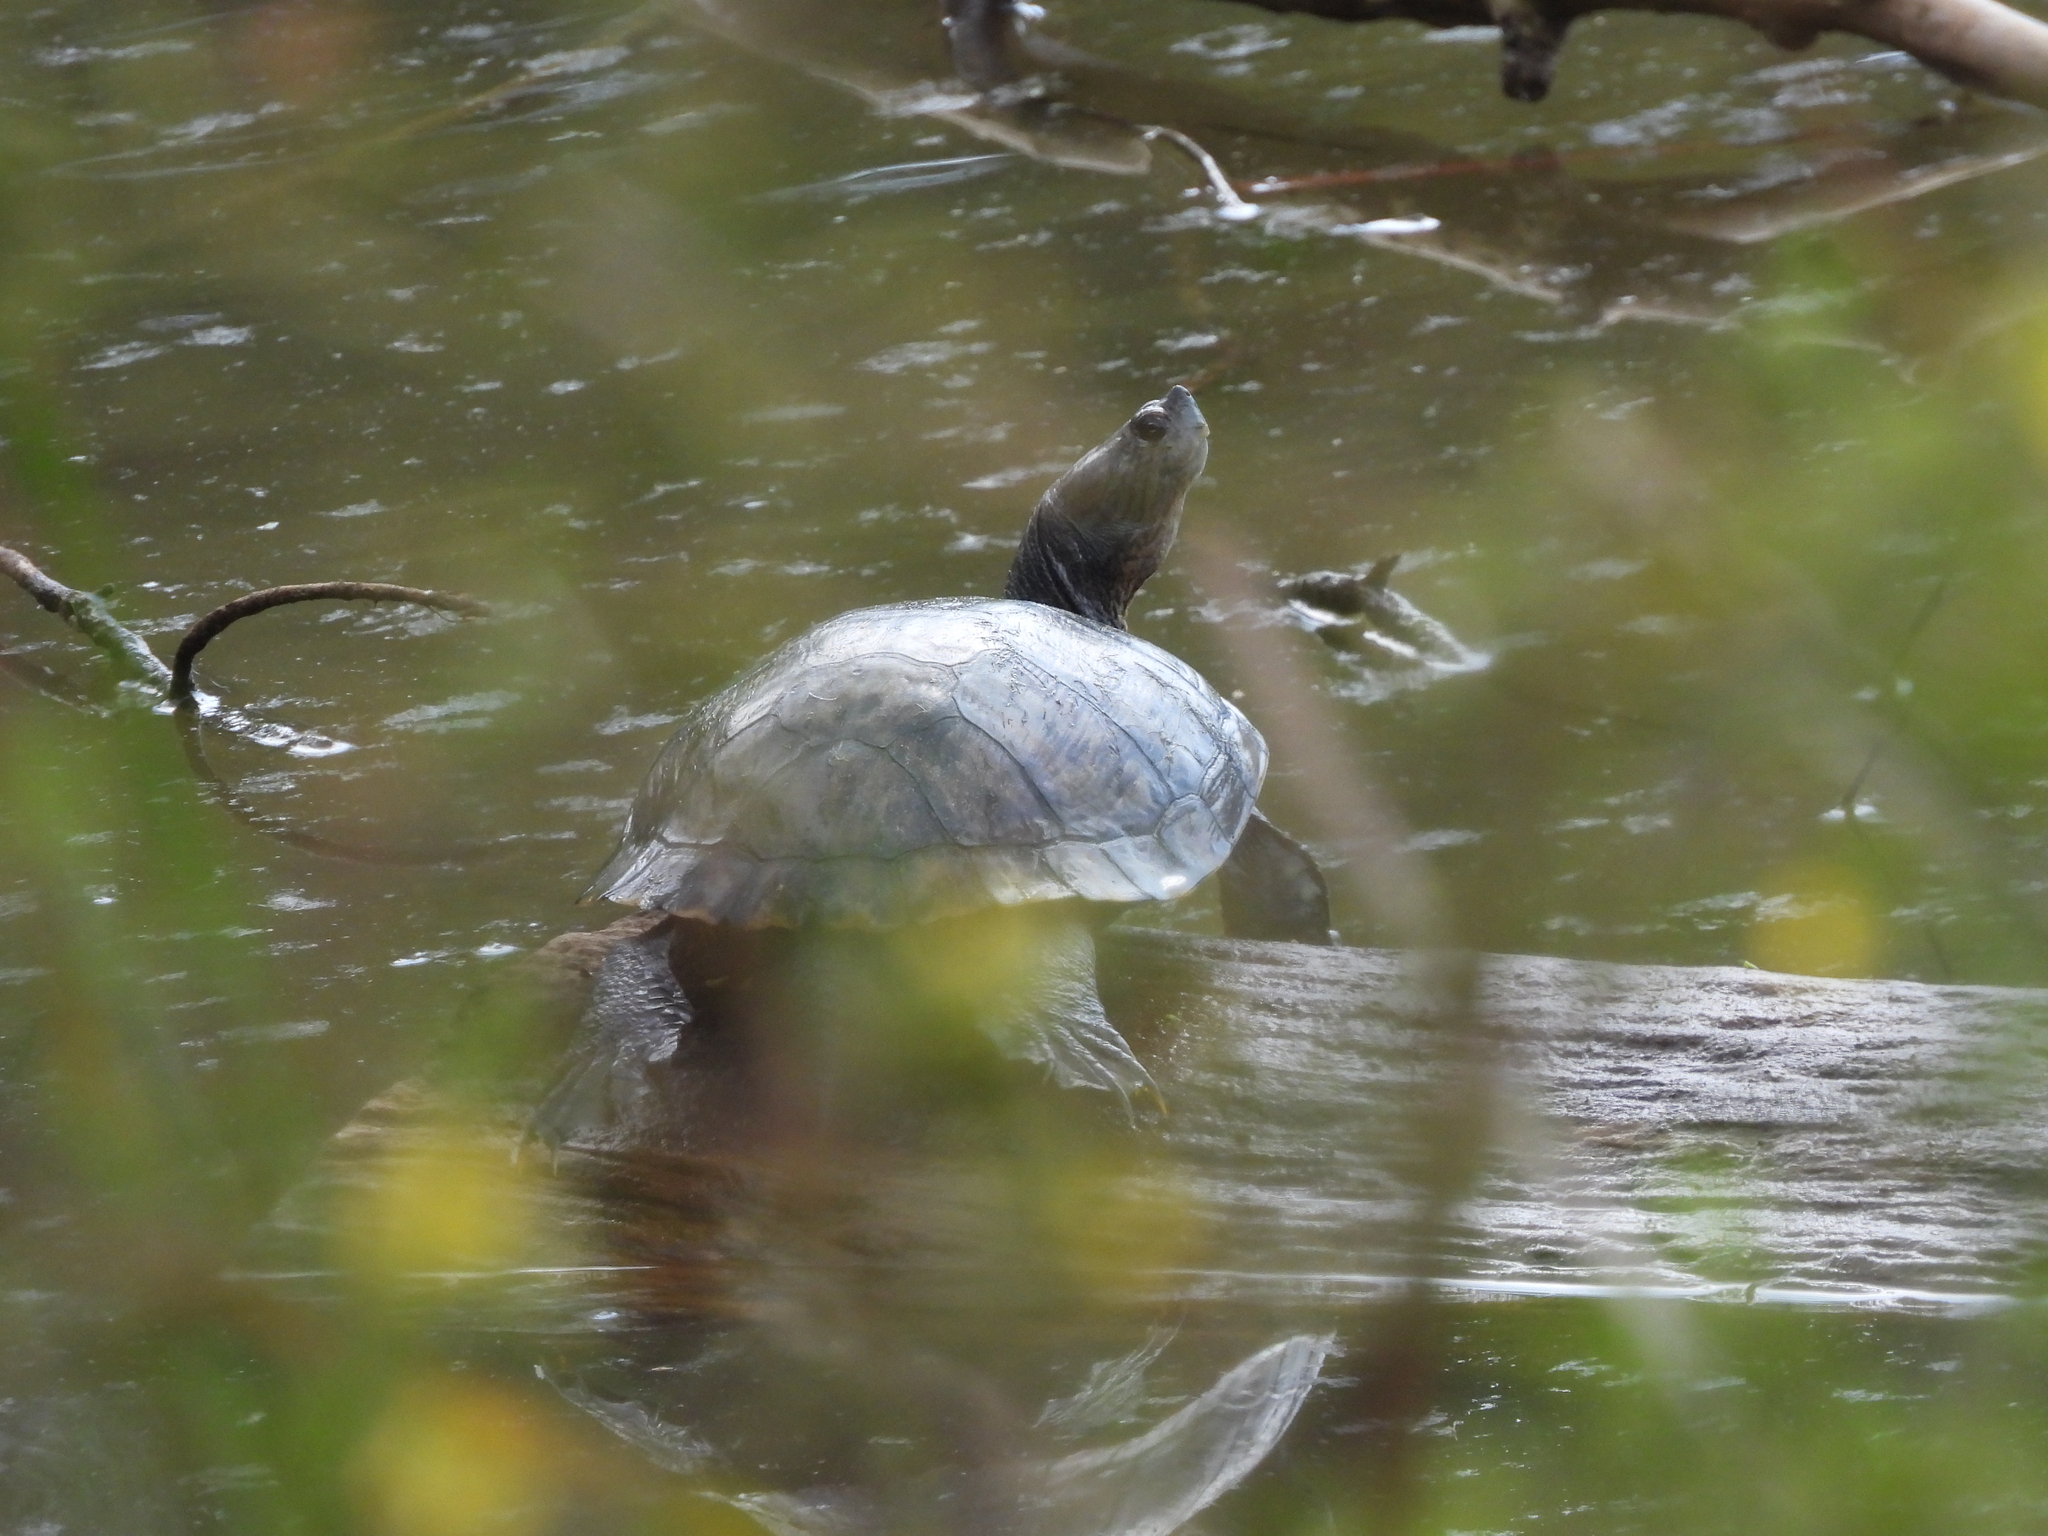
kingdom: Animalia
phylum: Chordata
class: Testudines
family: Emydidae
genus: Trachemys
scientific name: Trachemys scripta
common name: Slider
